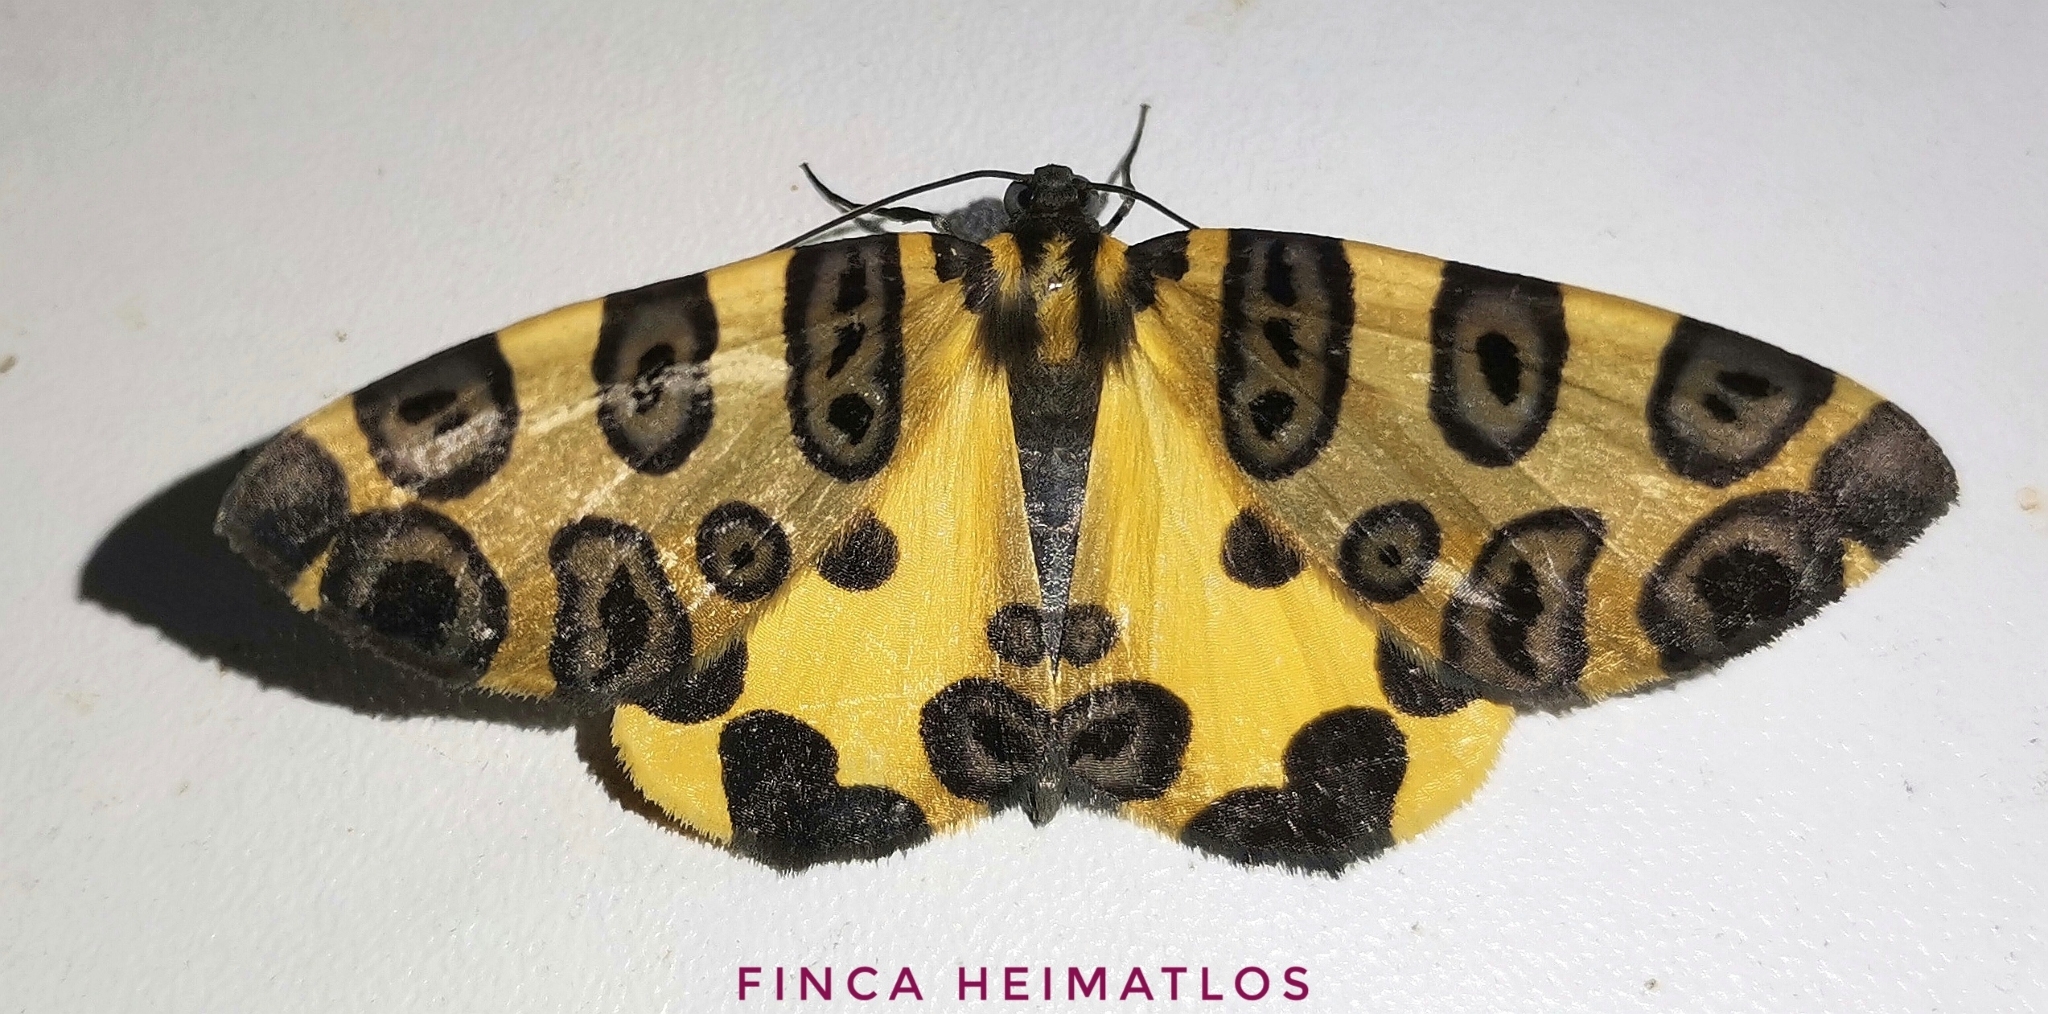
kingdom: Animalia
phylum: Arthropoda
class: Insecta
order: Lepidoptera
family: Geometridae
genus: Pantherodes
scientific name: Pantherodes conglomerata
